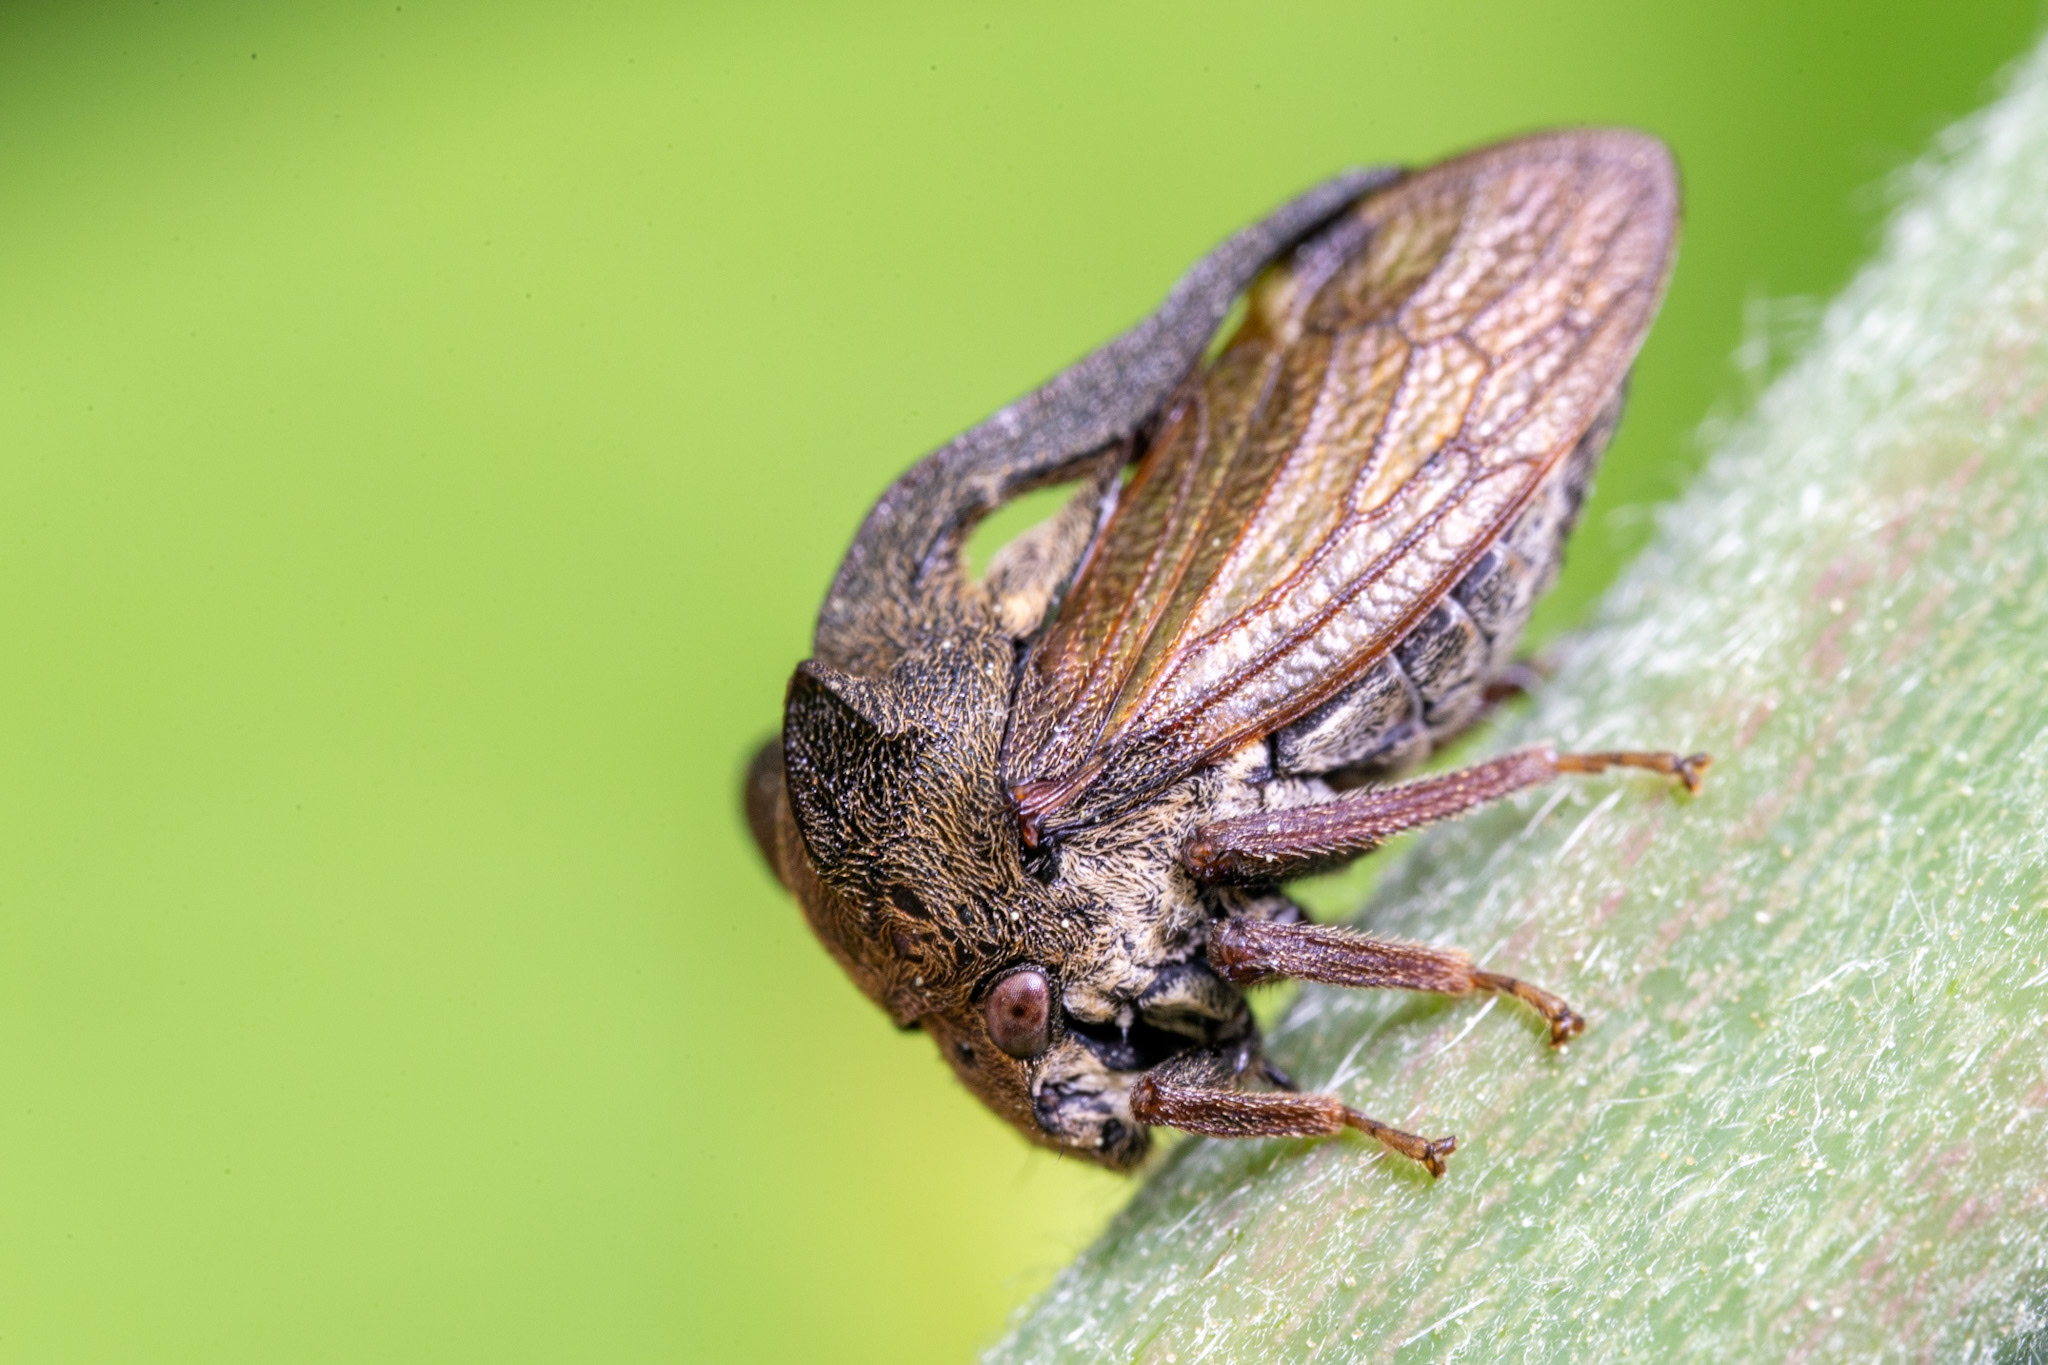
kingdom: Animalia
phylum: Arthropoda
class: Insecta
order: Hemiptera
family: Membracidae
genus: Centrotus
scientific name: Centrotus cornuta
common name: Treehopper
